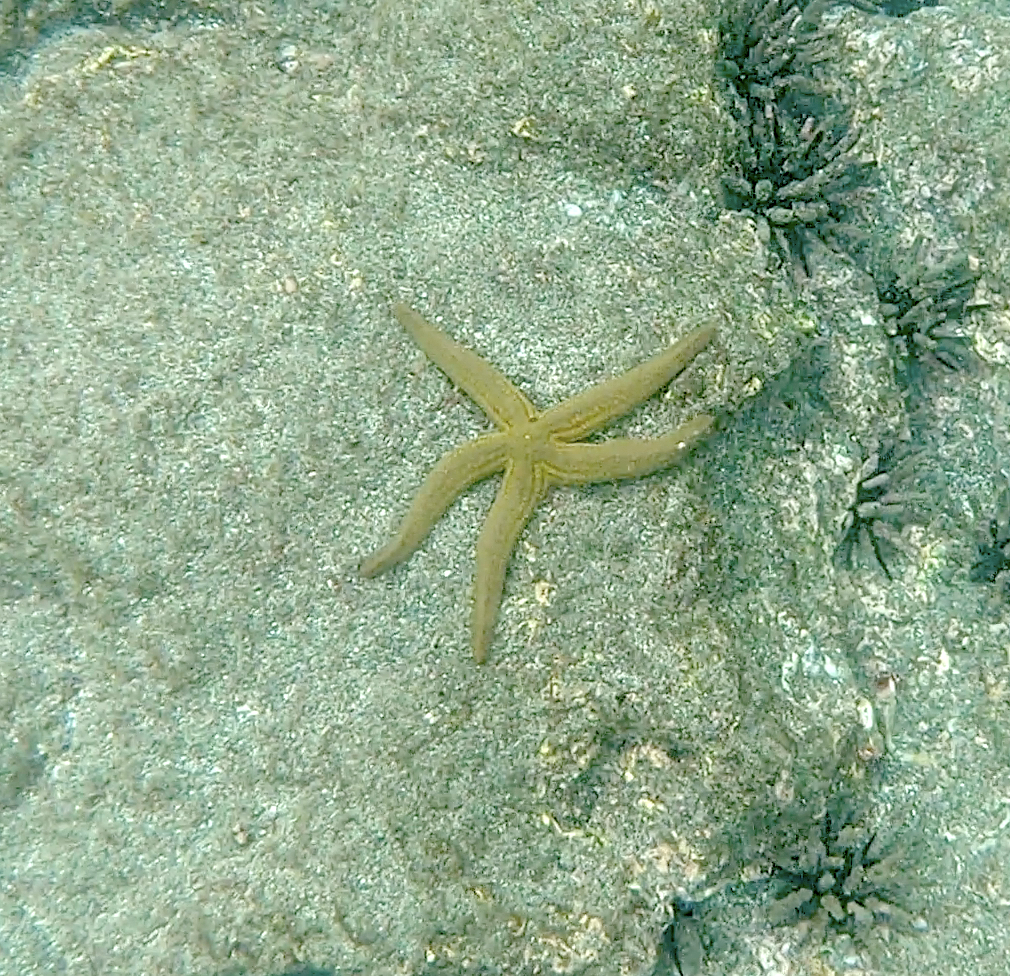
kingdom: Animalia
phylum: Echinodermata
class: Asteroidea
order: Valvatida
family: Ophidiasteridae
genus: Pharia
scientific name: Pharia pyramidata
